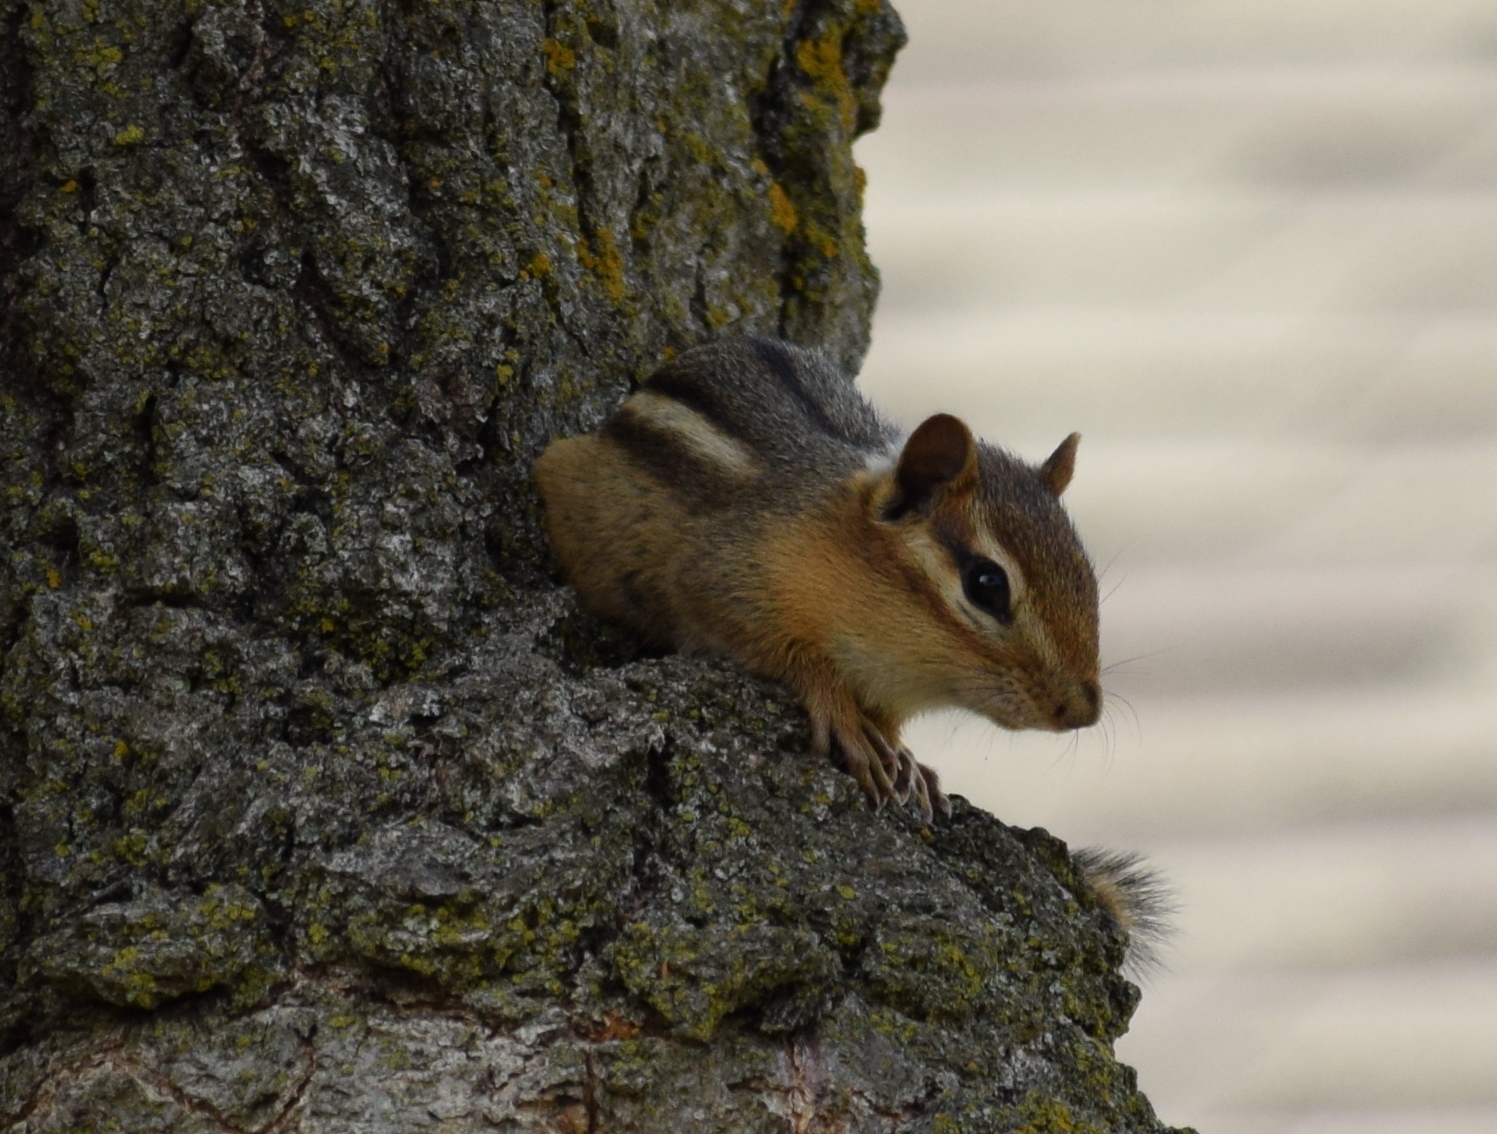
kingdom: Animalia
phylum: Chordata
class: Mammalia
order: Rodentia
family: Sciuridae
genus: Tamias
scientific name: Tamias striatus
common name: Eastern chipmunk
